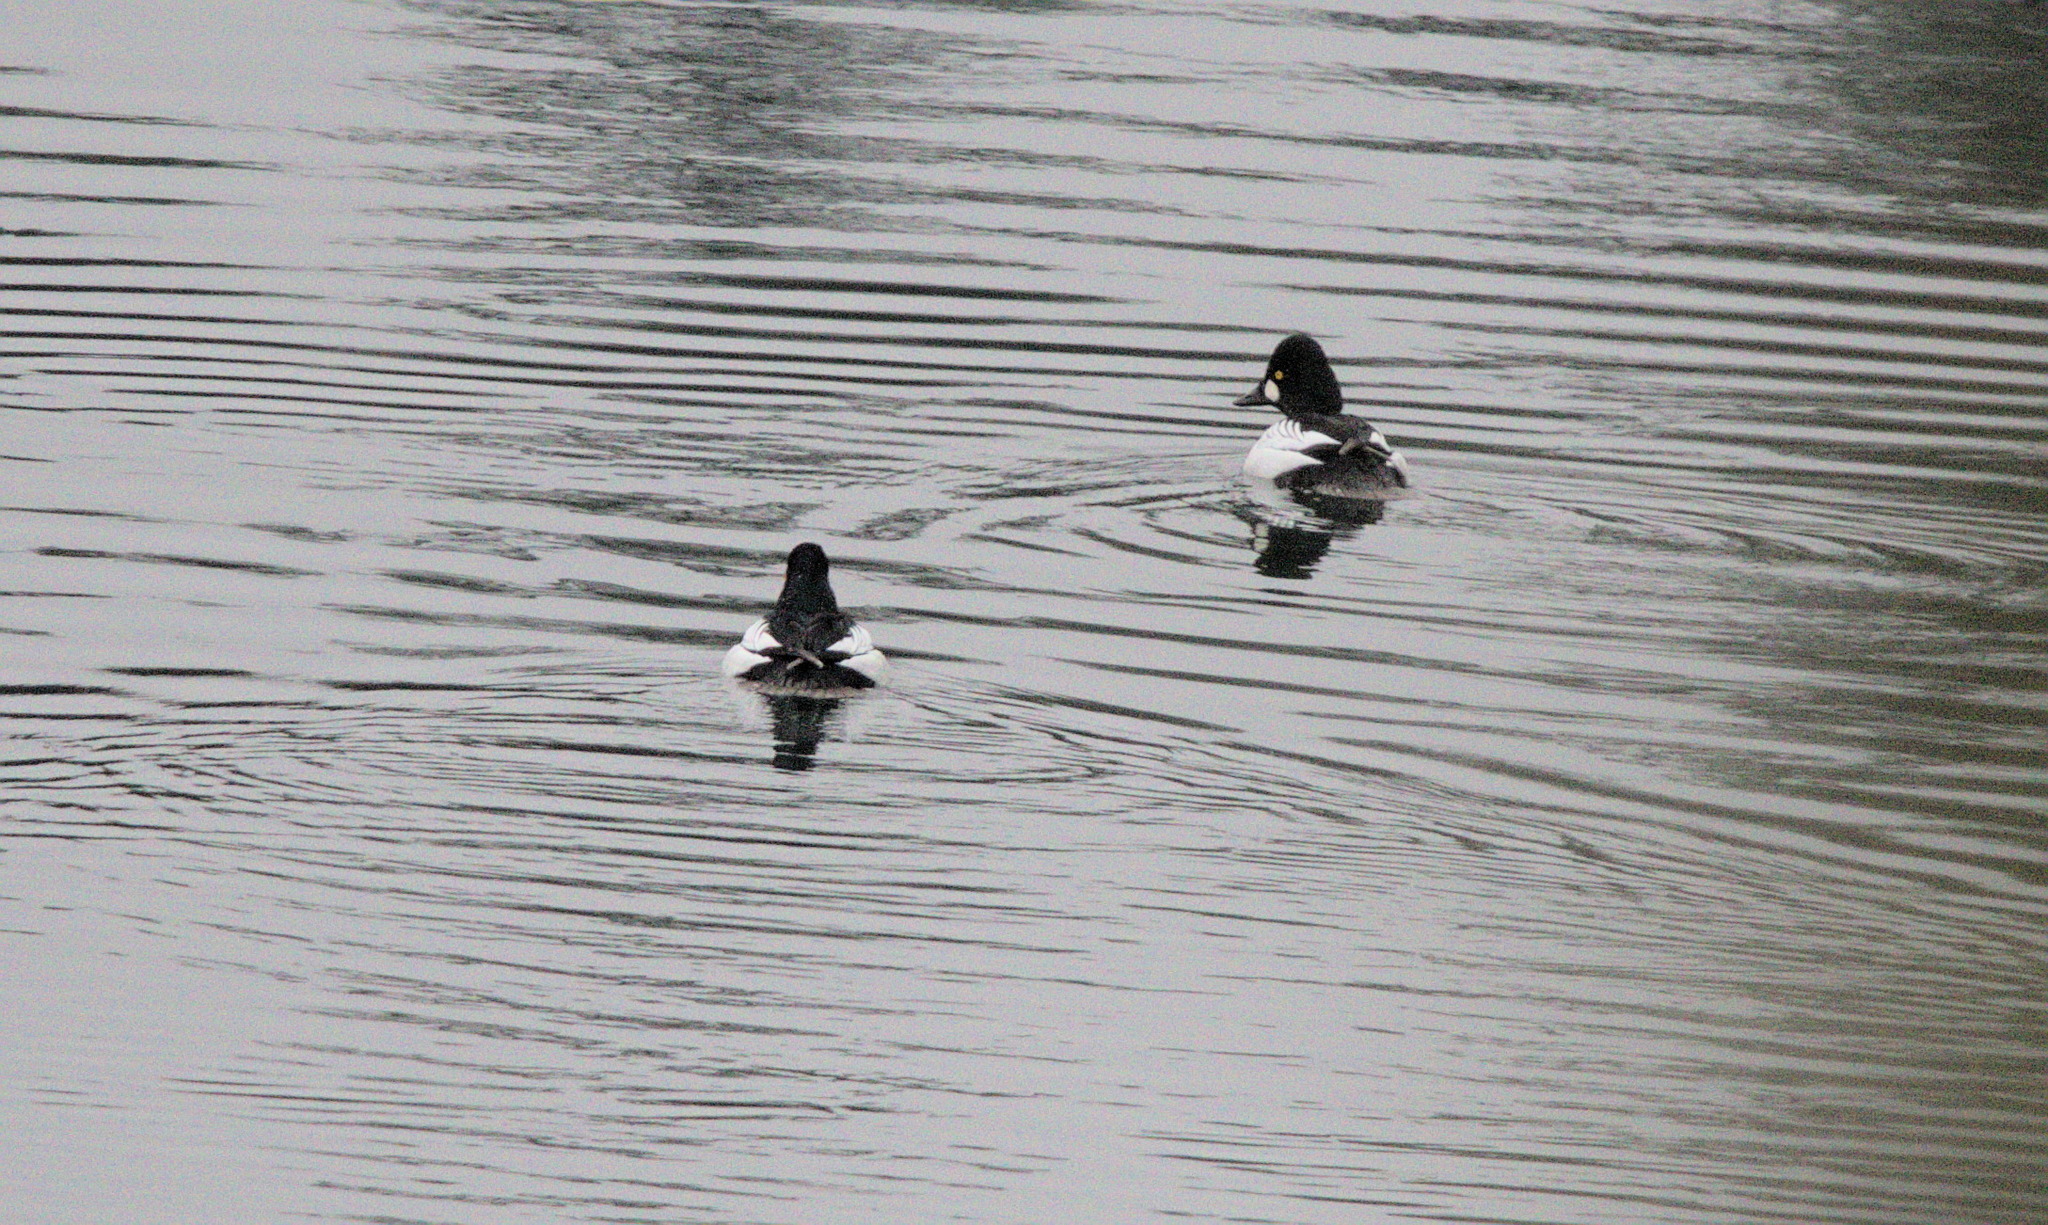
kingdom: Animalia
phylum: Chordata
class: Aves
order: Anseriformes
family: Anatidae
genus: Bucephala
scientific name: Bucephala clangula
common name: Common goldeneye
